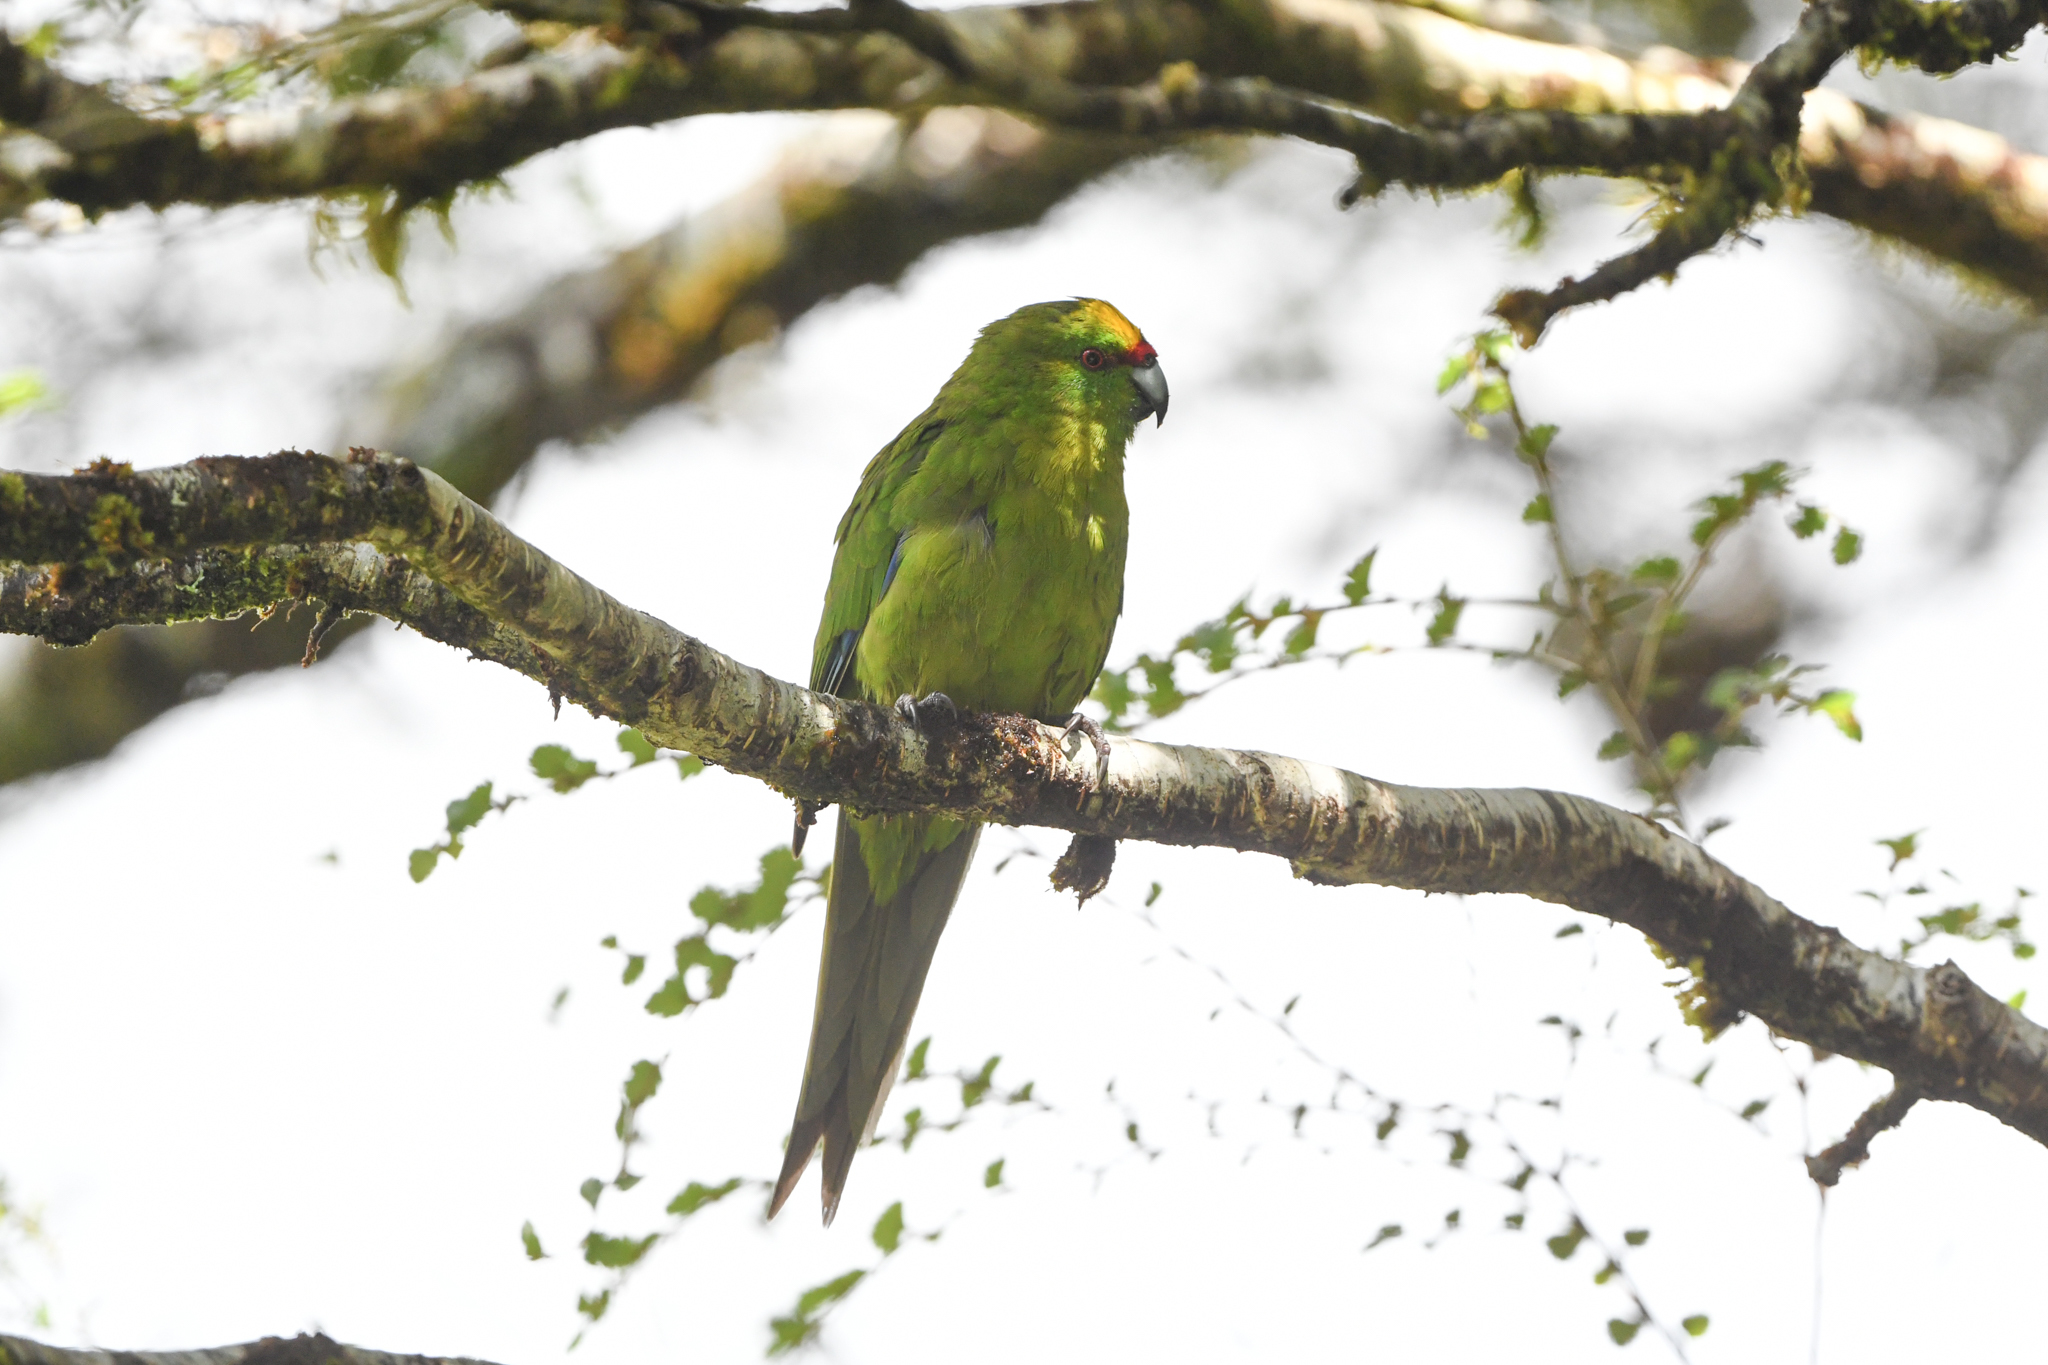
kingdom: Animalia
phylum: Chordata
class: Aves
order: Psittaciformes
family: Psittacidae
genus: Cyanoramphus
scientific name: Cyanoramphus auriceps
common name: Yellow-crowned parakeet
